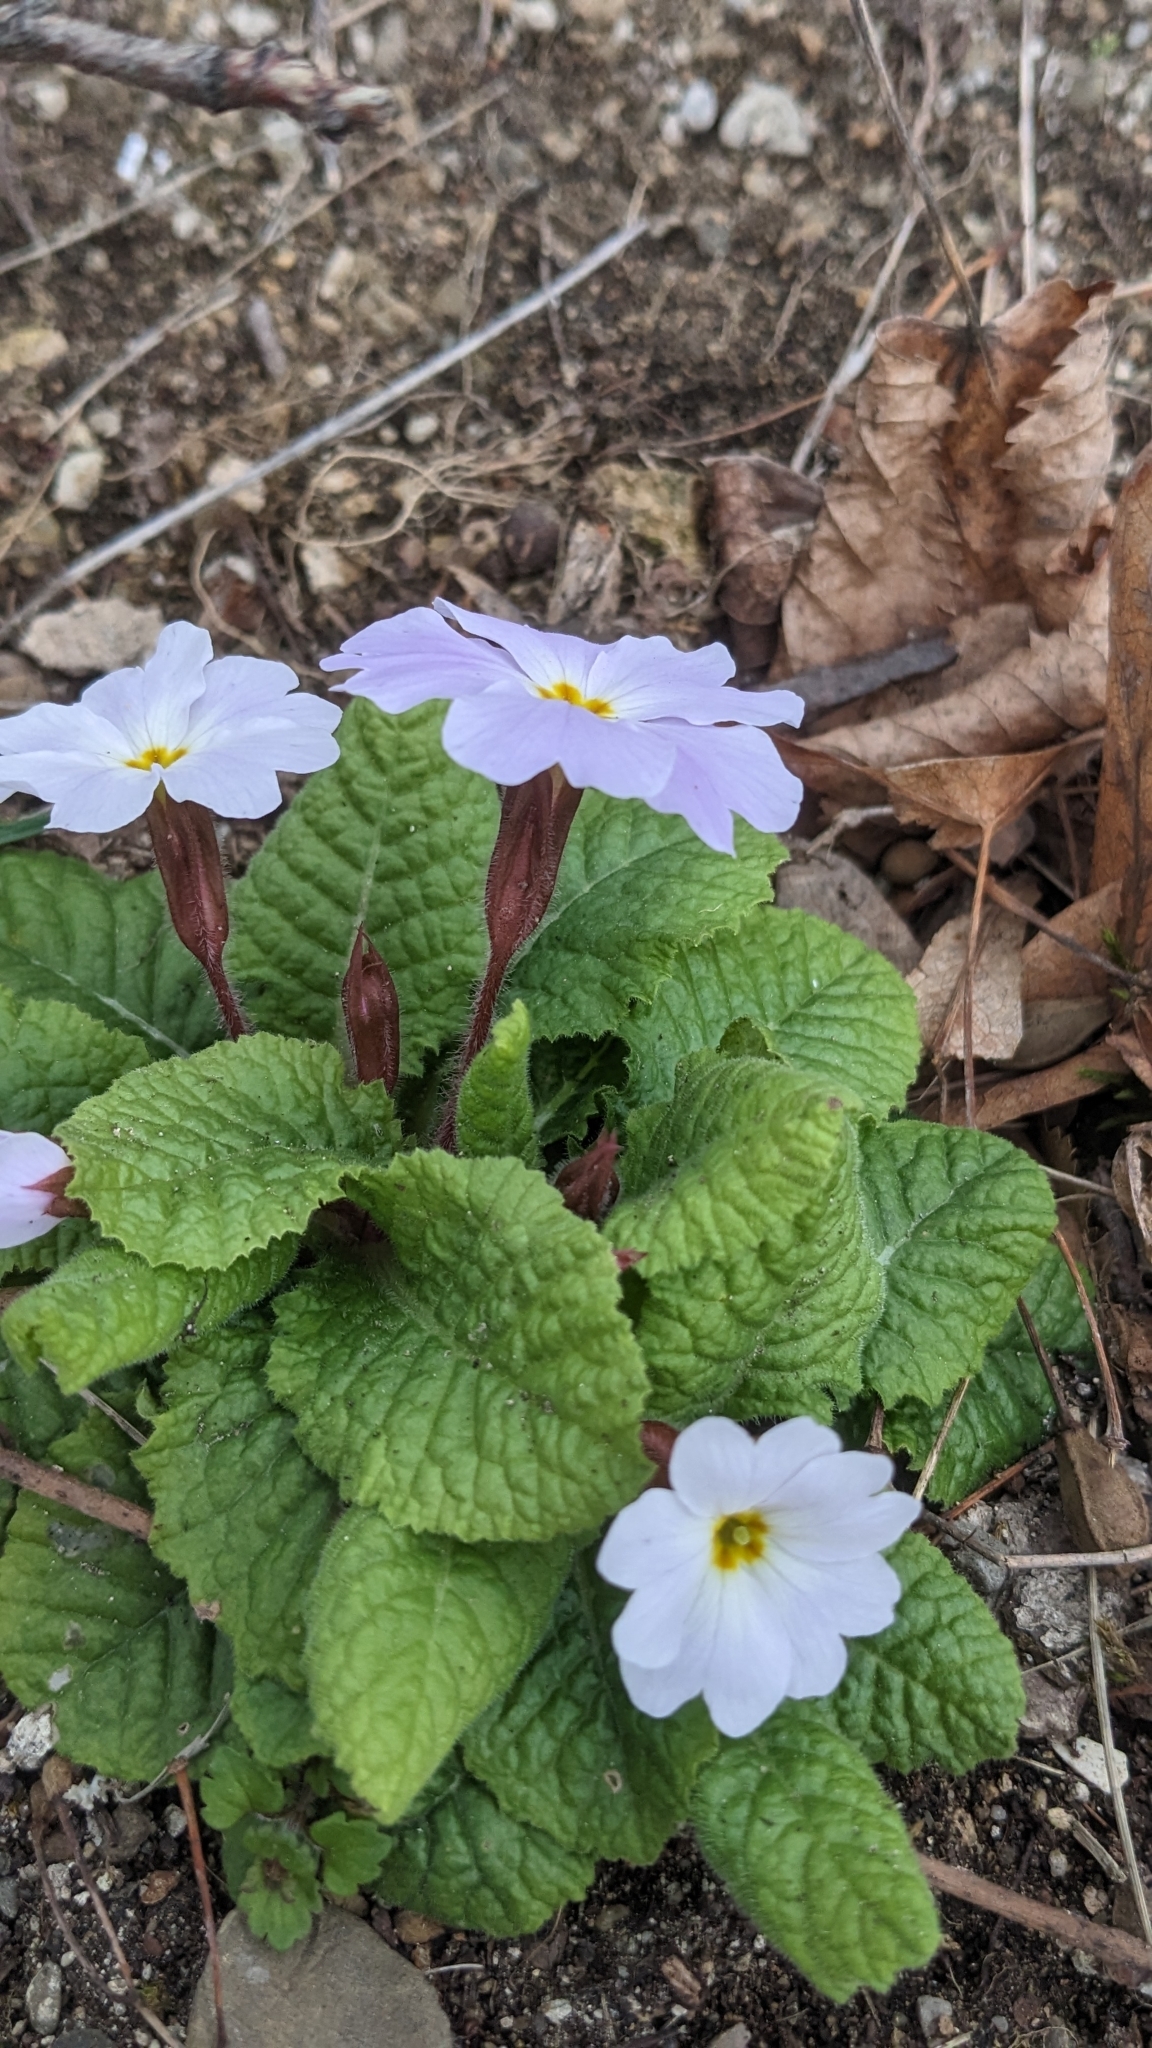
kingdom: Plantae
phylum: Tracheophyta
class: Magnoliopsida
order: Ericales
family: Primulaceae
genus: Primula
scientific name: Primula vulgaris
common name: Primrose
